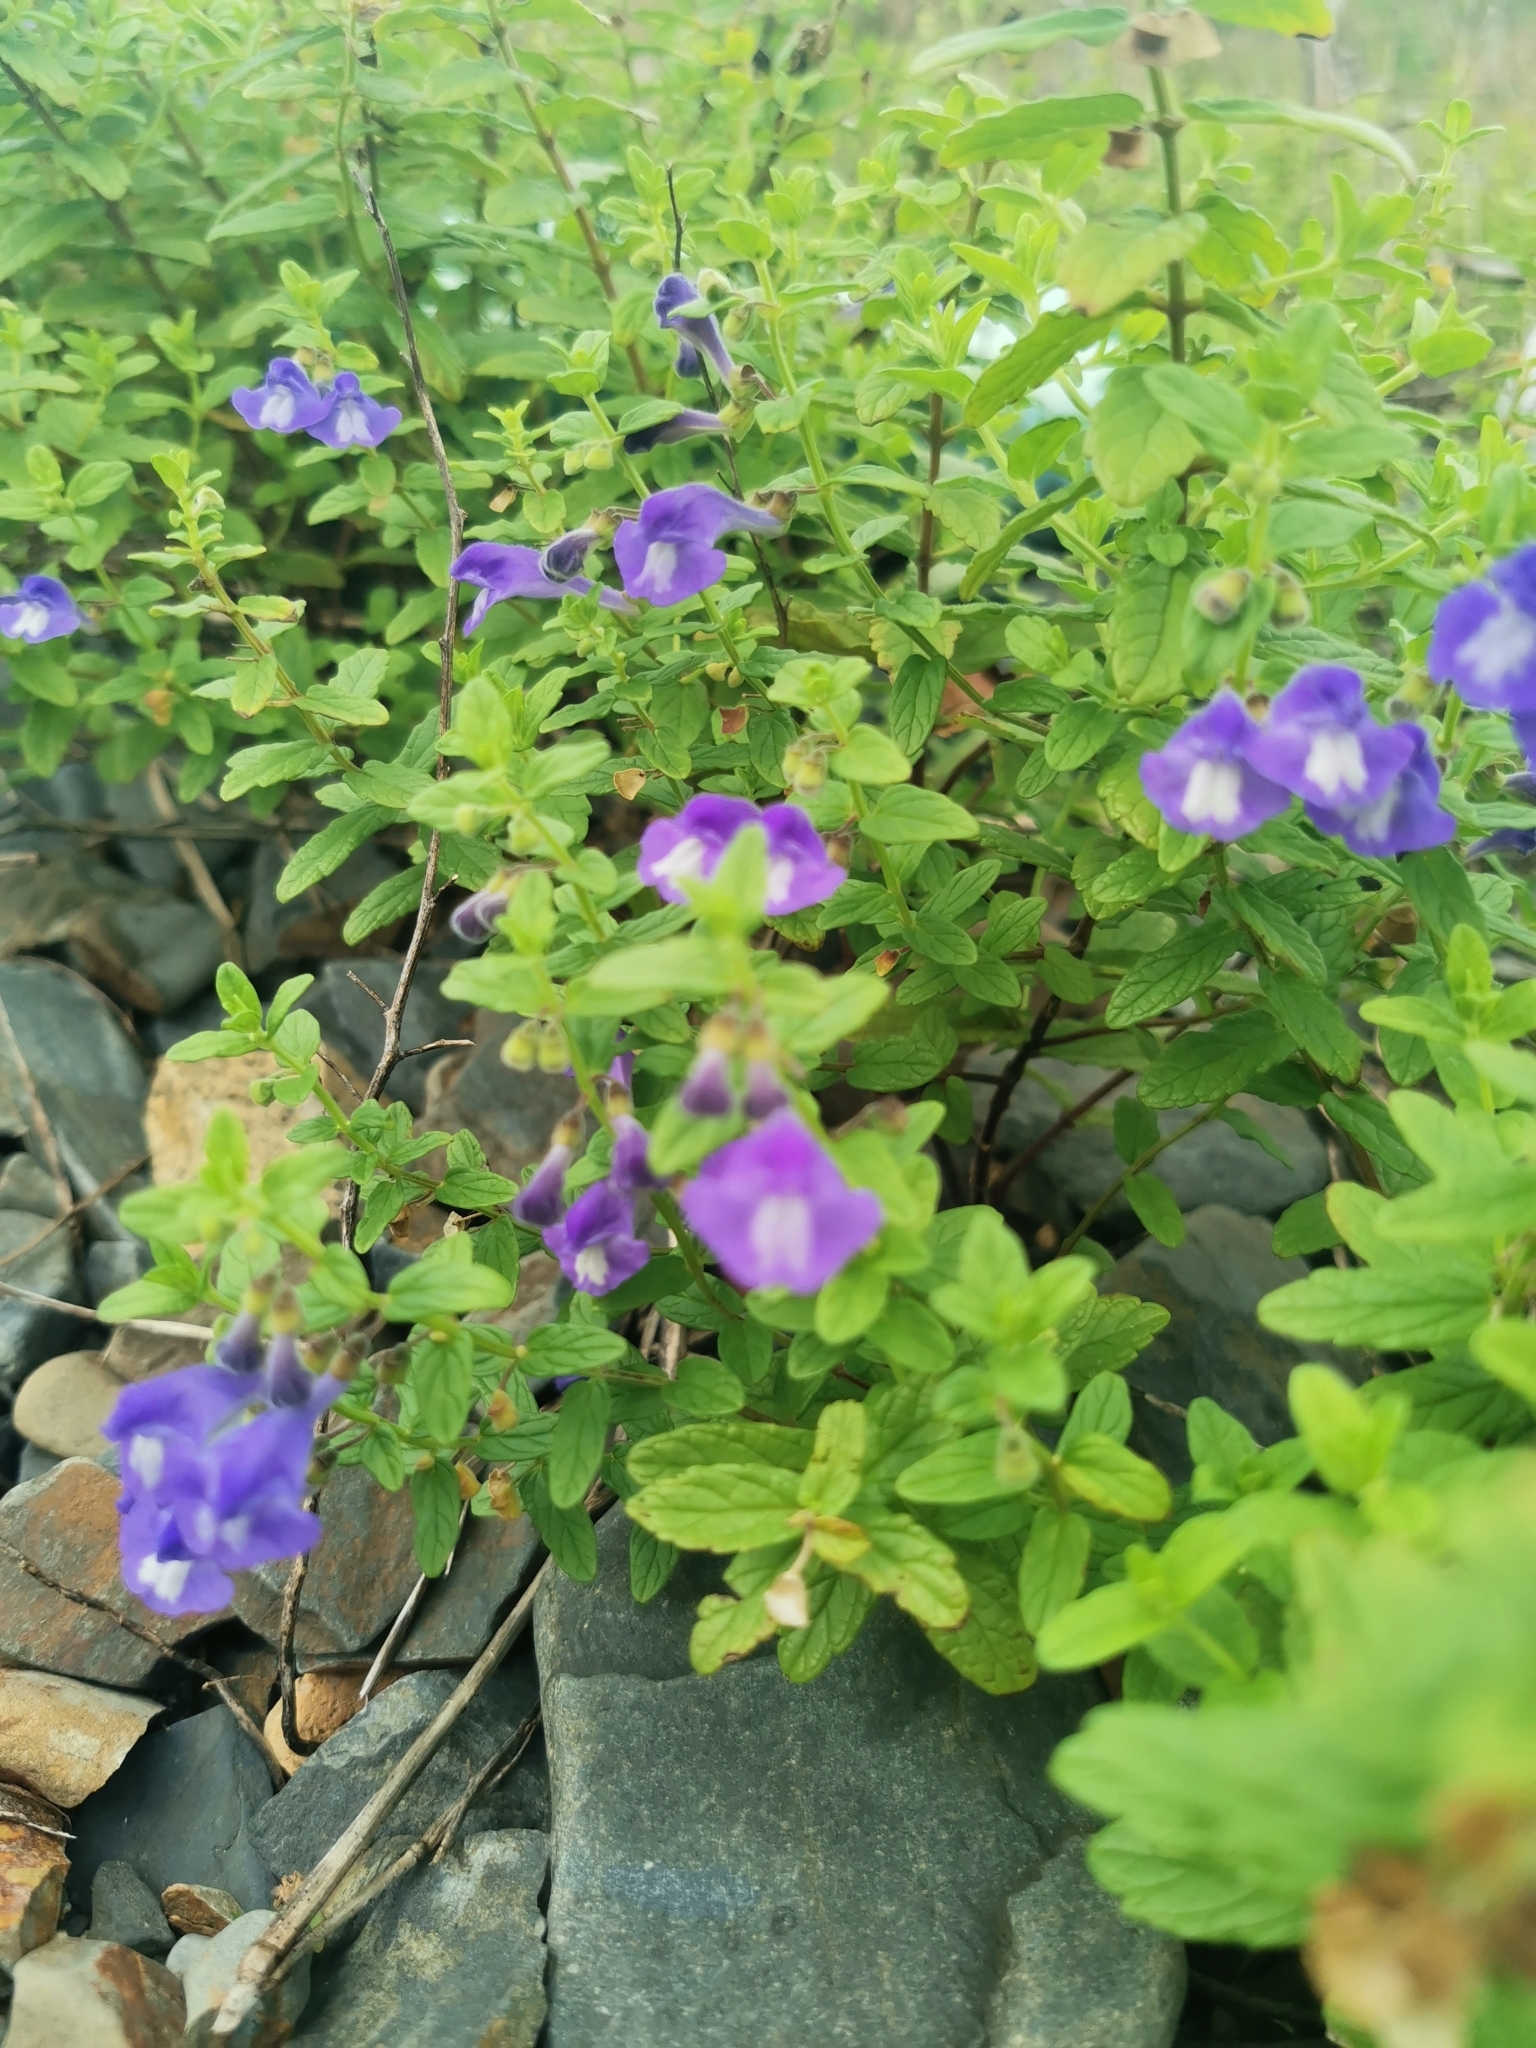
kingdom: Plantae
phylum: Tracheophyta
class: Magnoliopsida
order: Lamiales
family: Lamiaceae
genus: Scutellaria
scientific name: Scutellaria strigillosa
